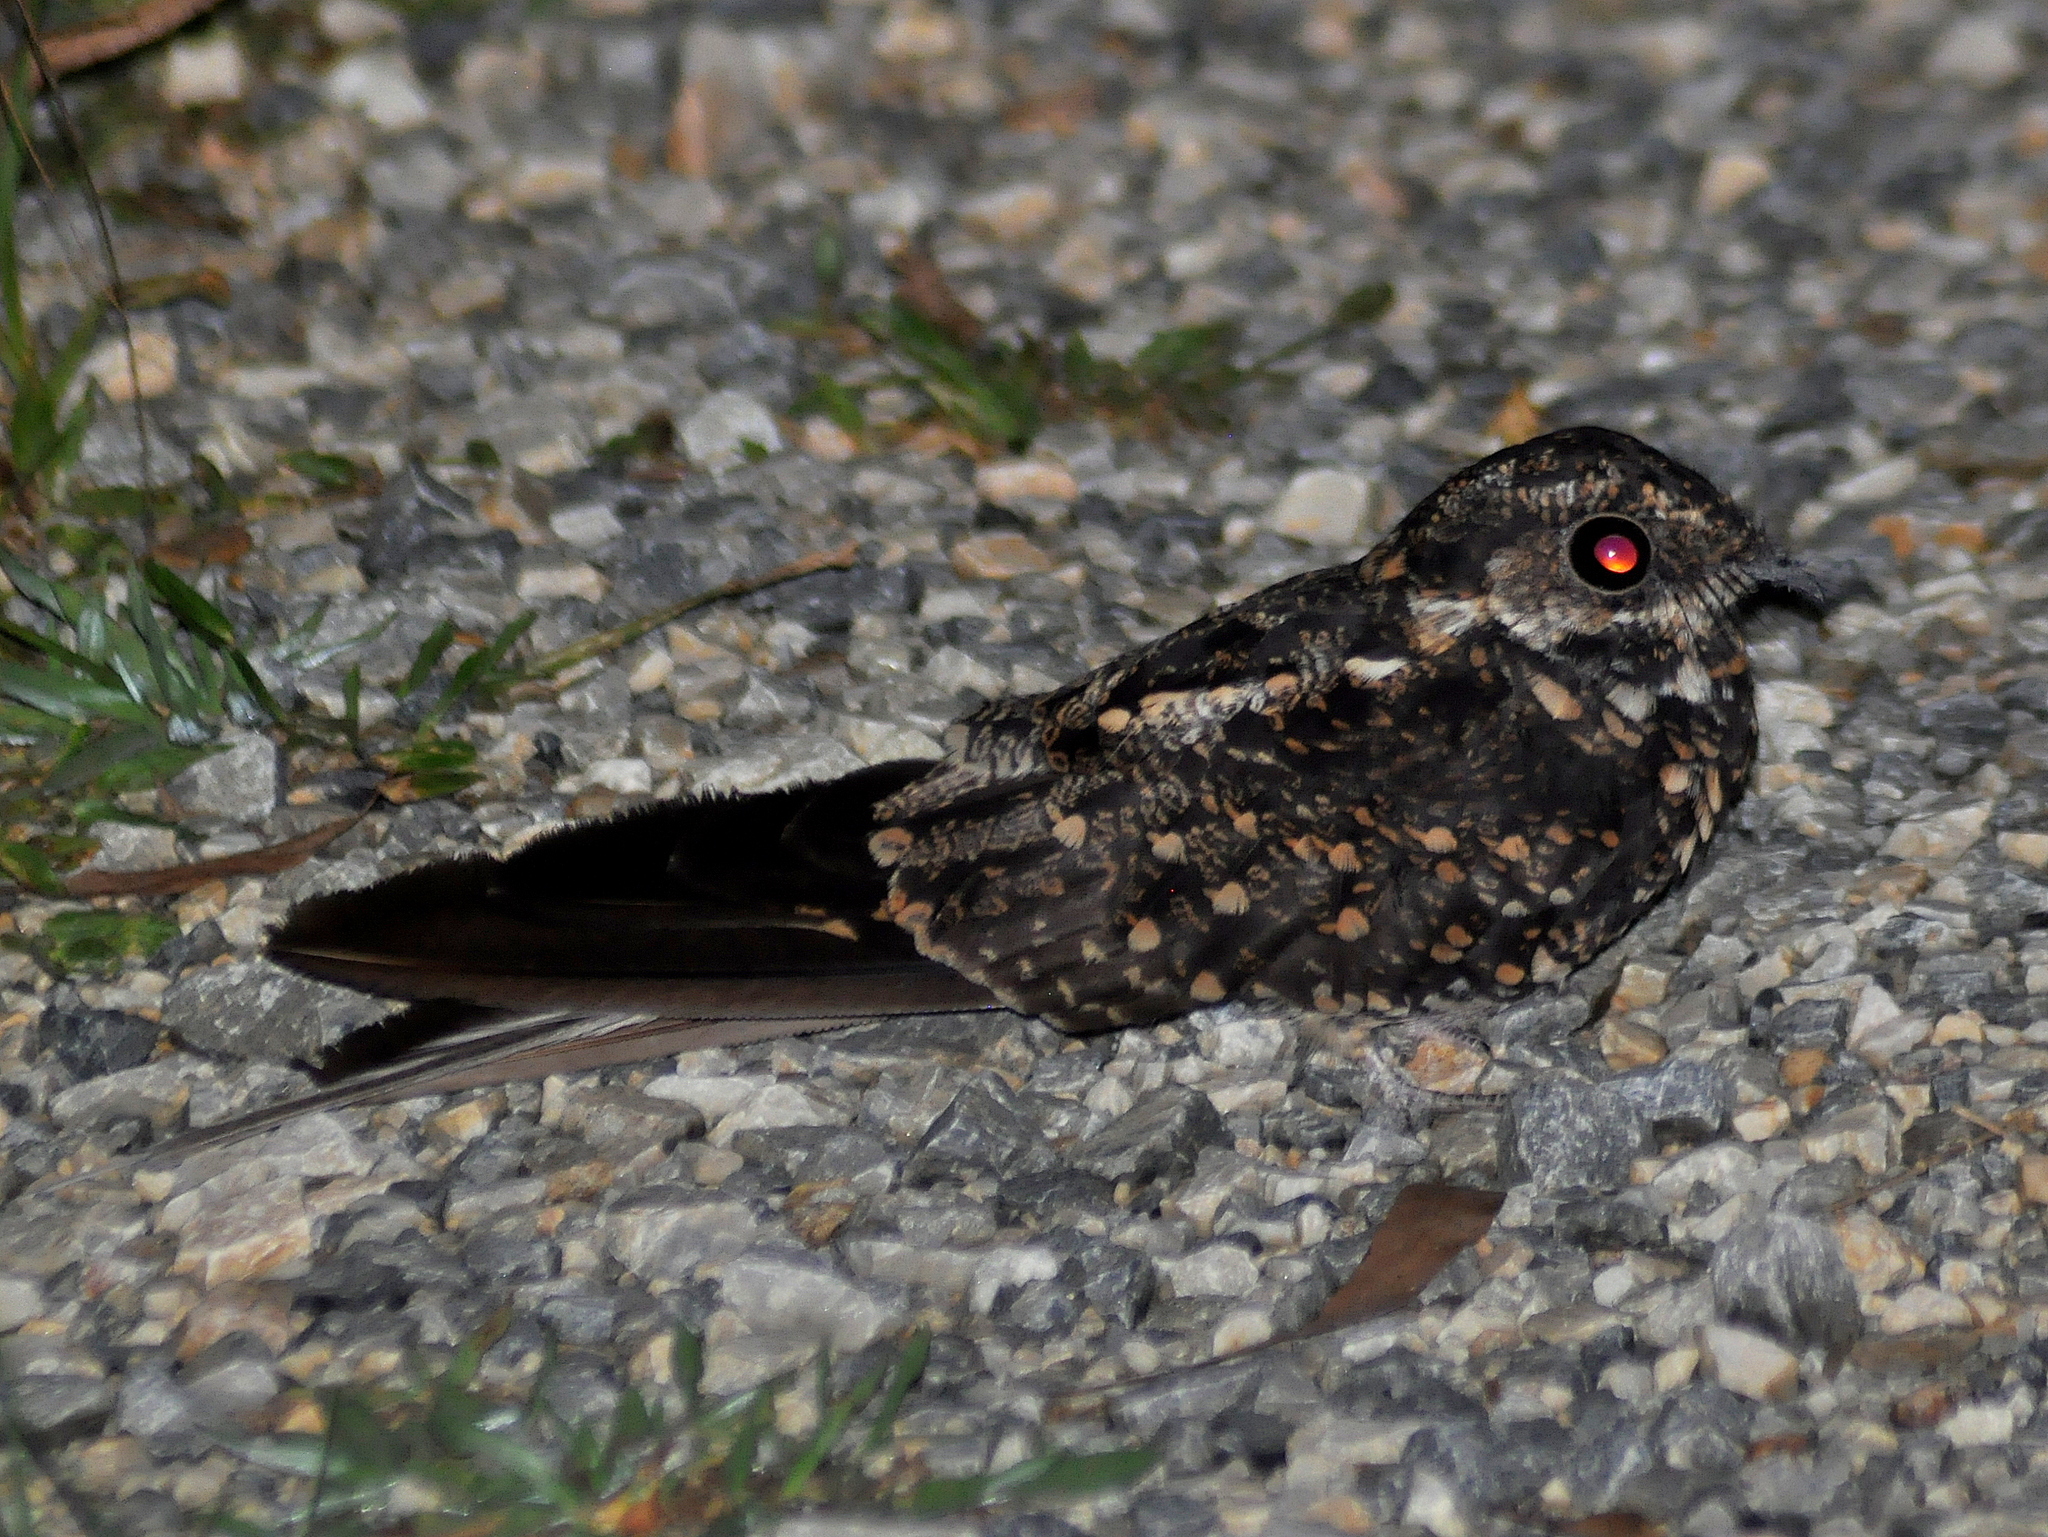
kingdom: Animalia
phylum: Chordata
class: Aves
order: Caprimulgiformes
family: Caprimulgidae
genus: Macropsalis
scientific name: Macropsalis forcipata
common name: Long-trained nightjar
